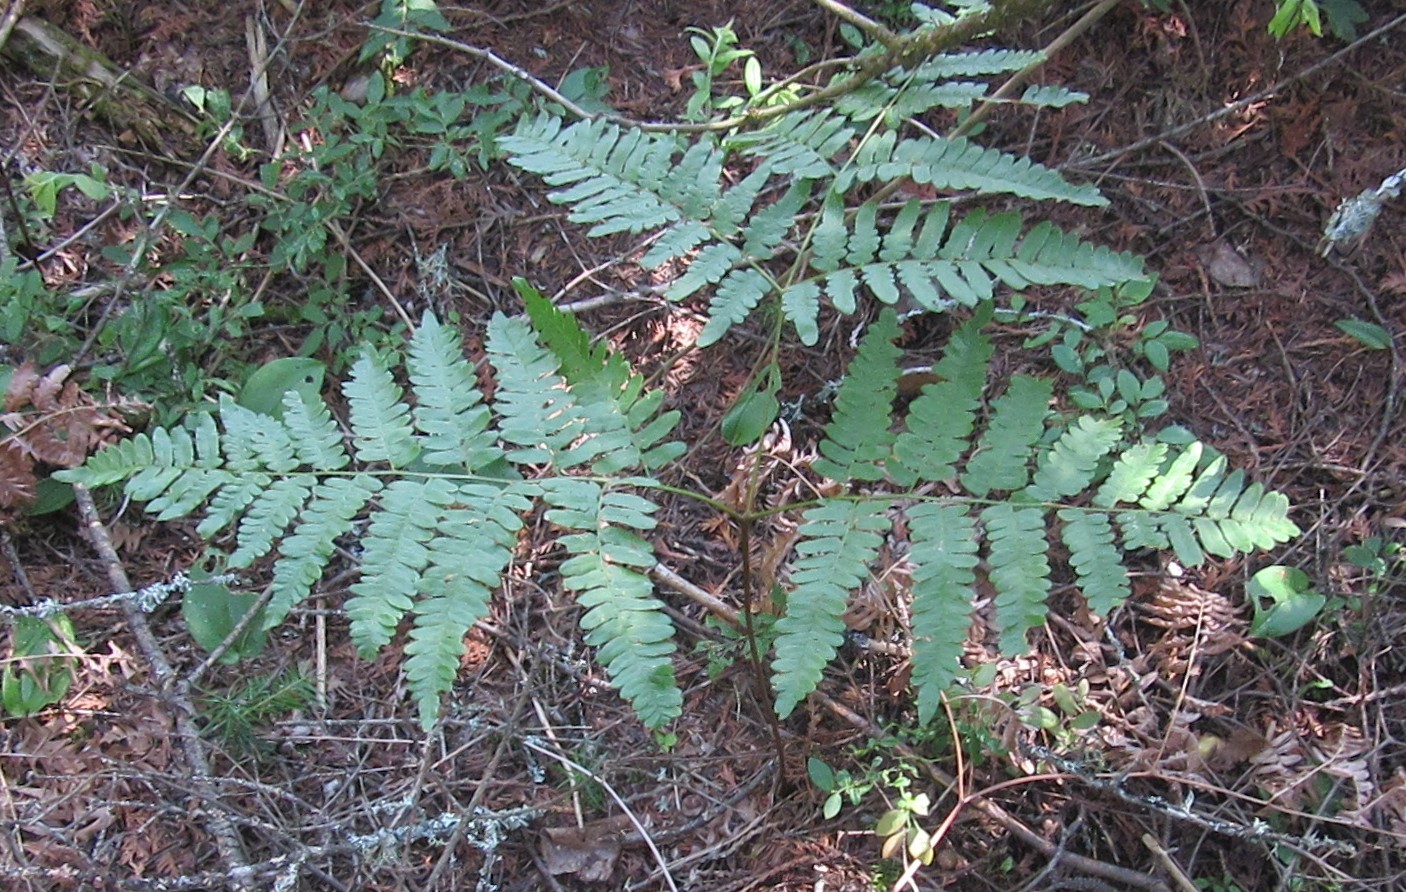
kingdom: Plantae
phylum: Tracheophyta
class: Polypodiopsida
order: Polypodiales
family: Dennstaedtiaceae
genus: Pteridium
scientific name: Pteridium aquilinum
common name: Bracken
